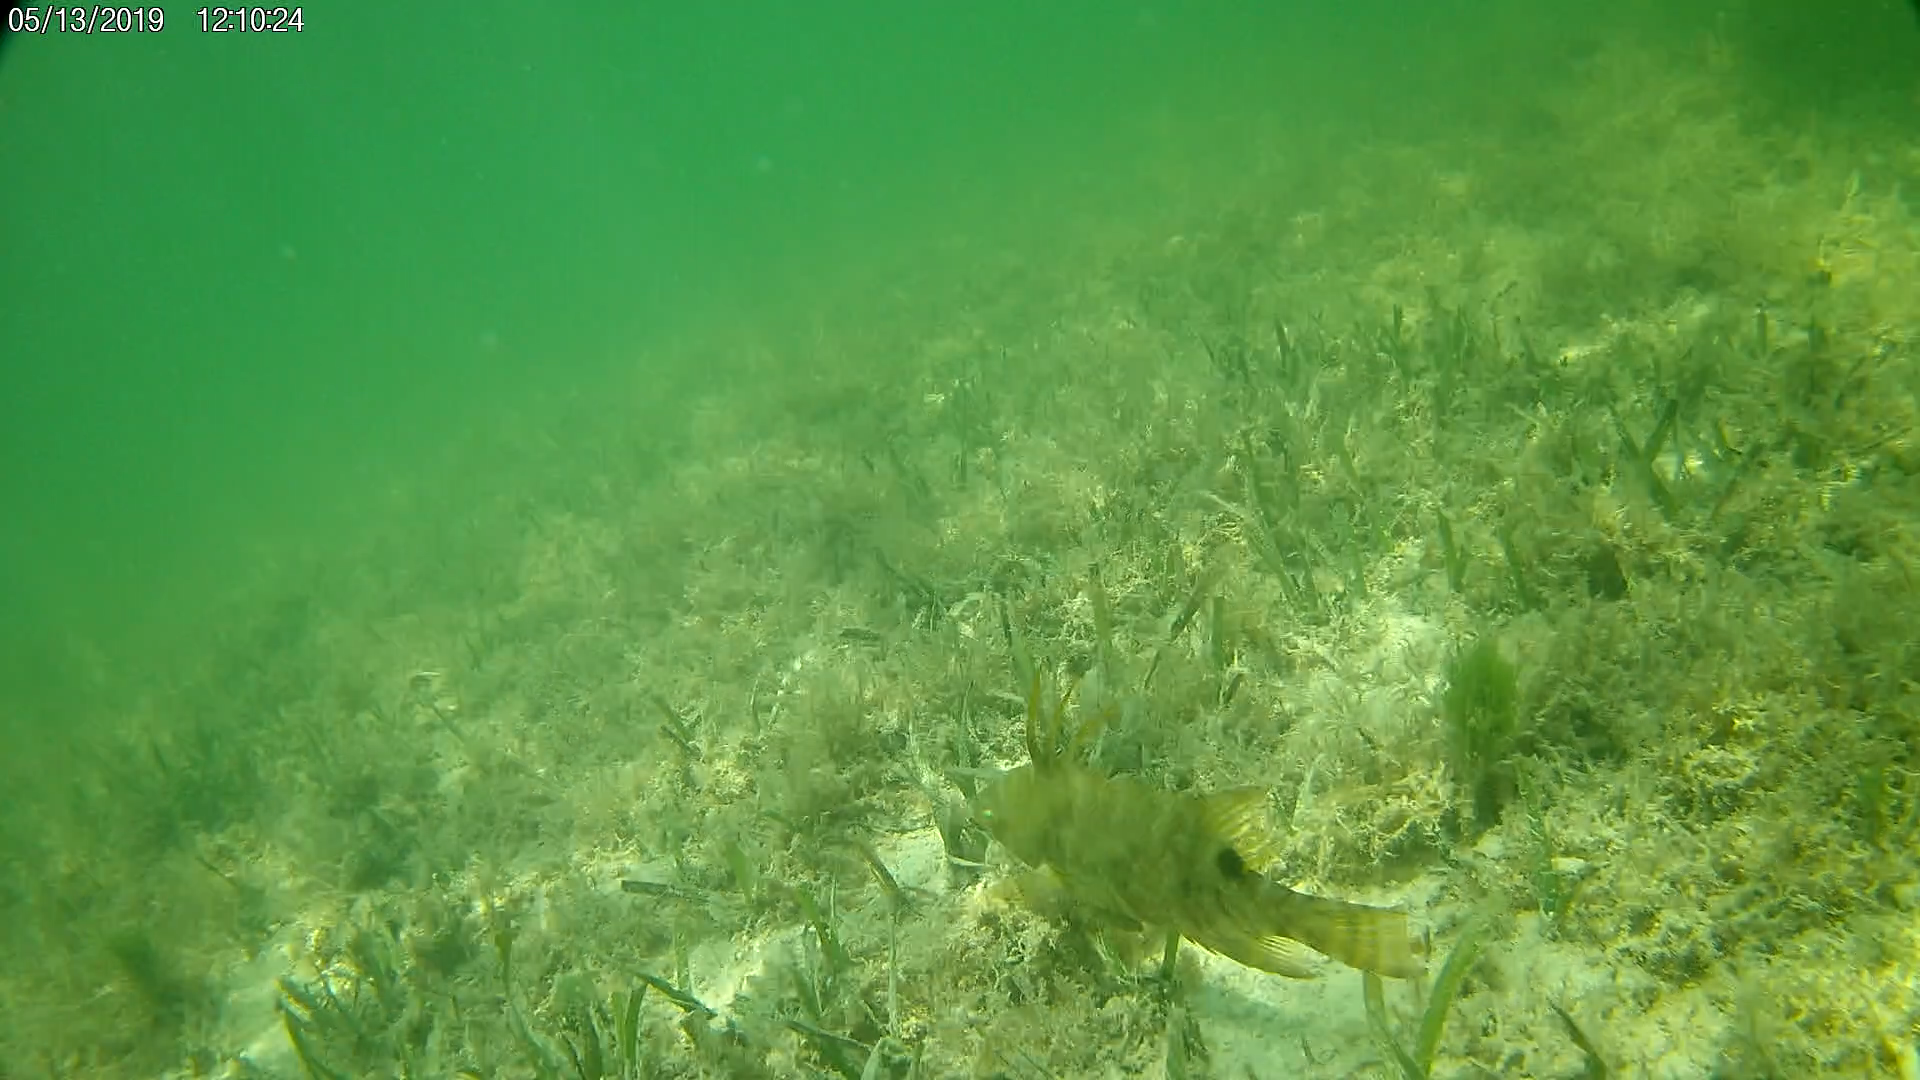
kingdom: Animalia
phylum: Chordata
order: Perciformes
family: Labridae
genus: Lachnolaimus
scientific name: Lachnolaimus maximus
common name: Hogfish
